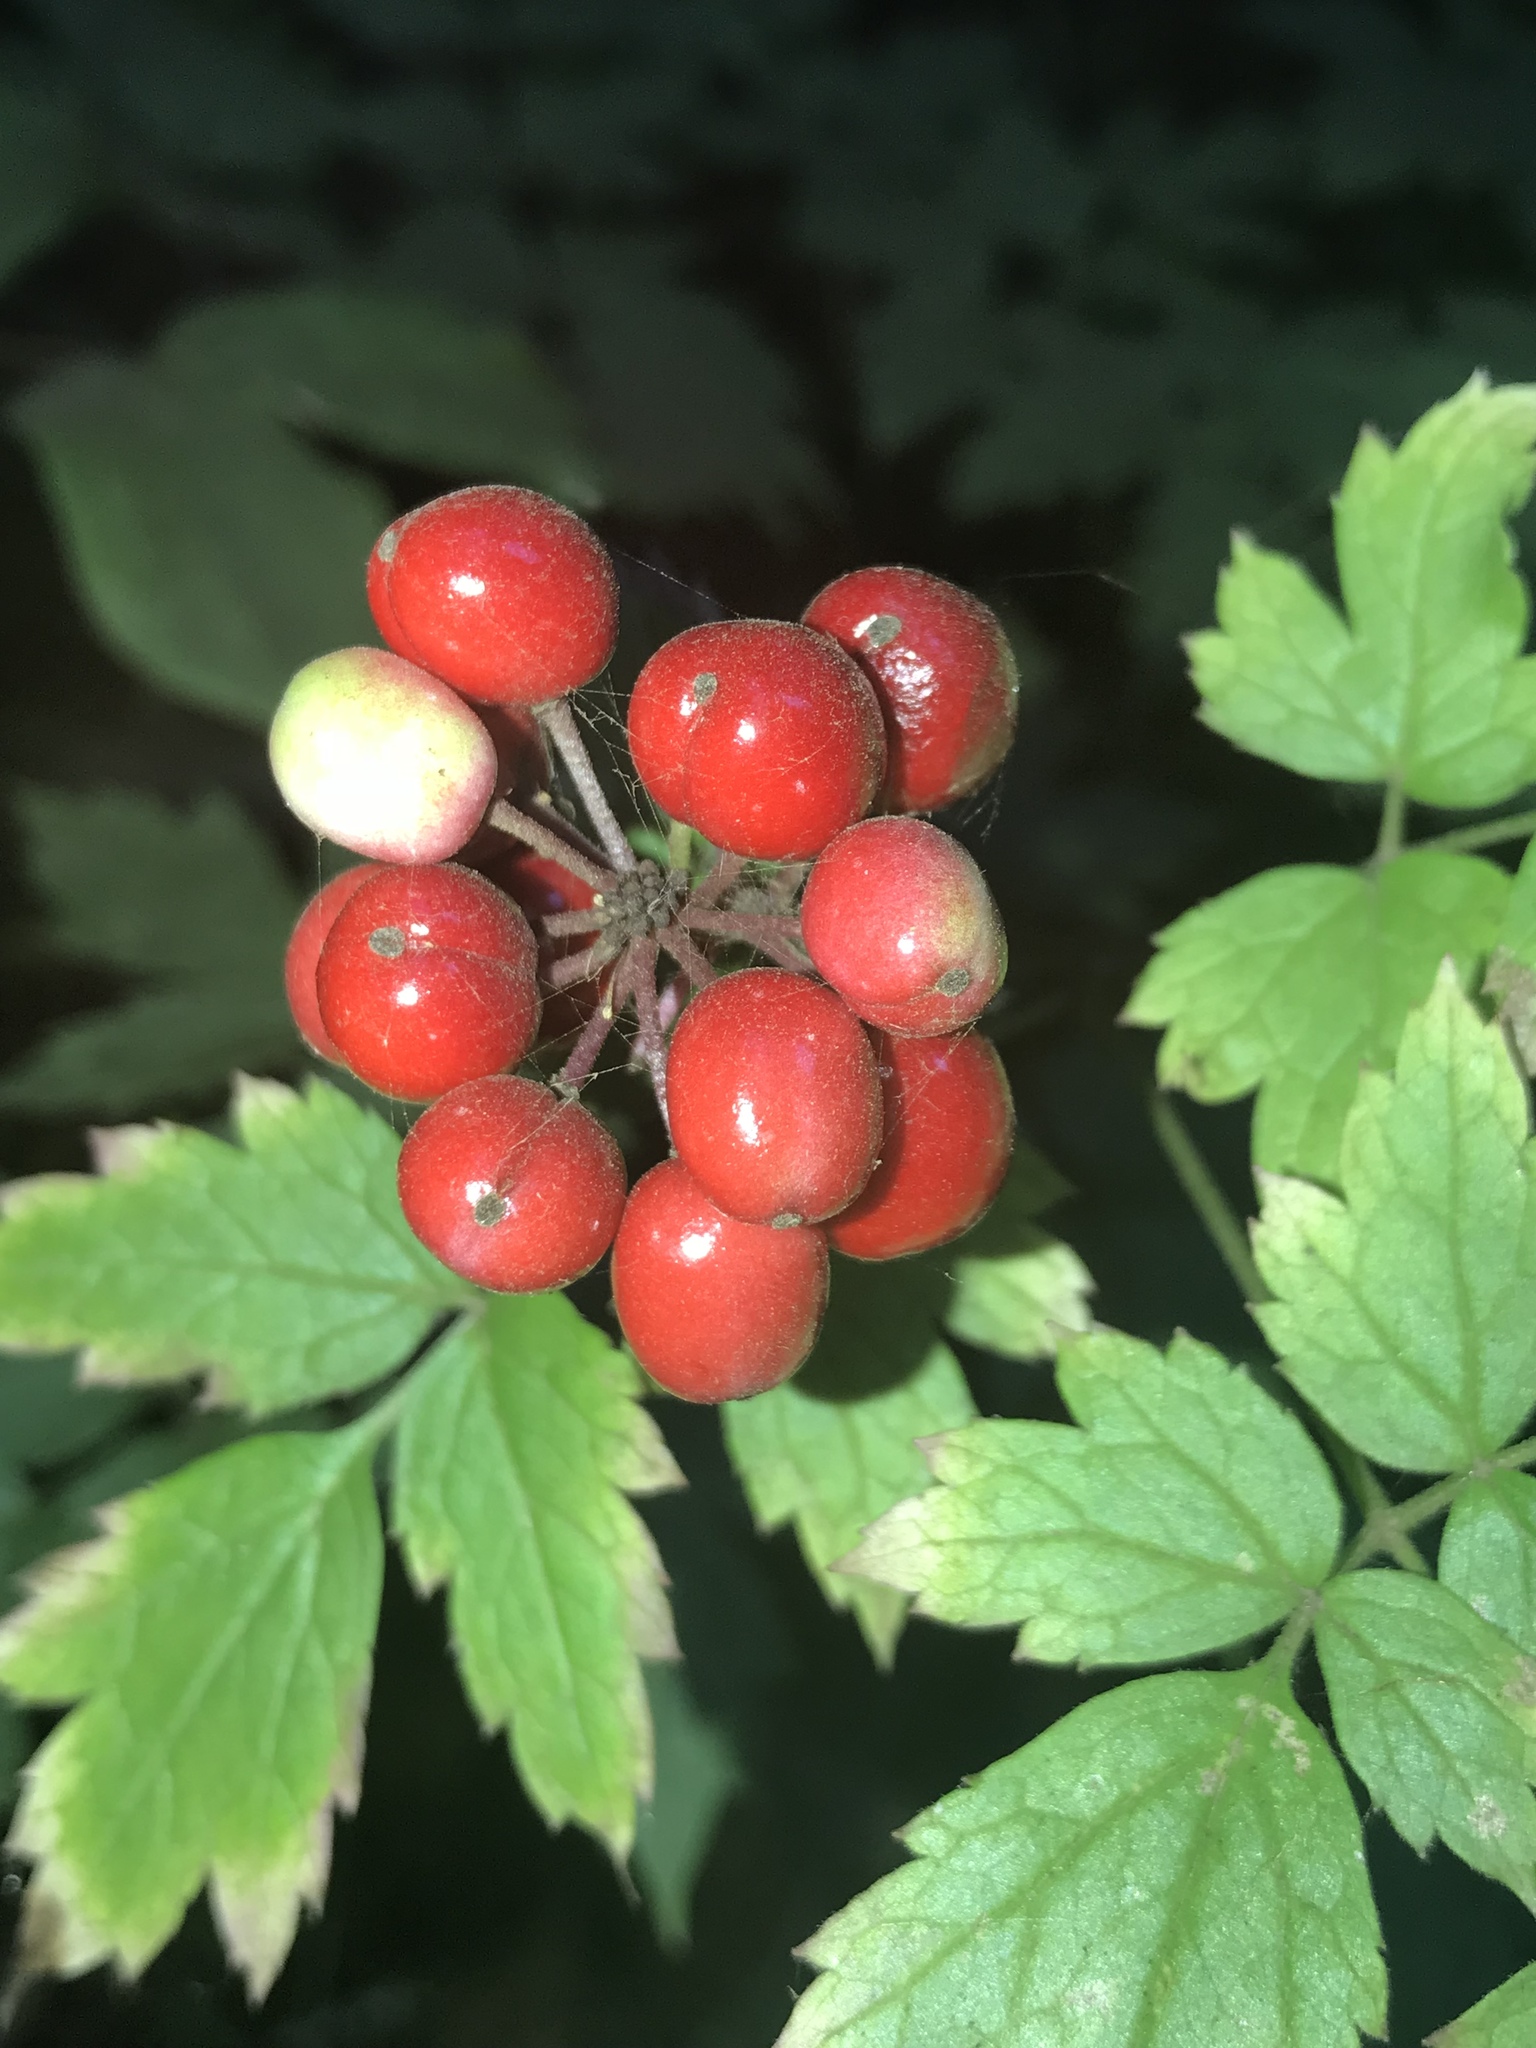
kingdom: Plantae
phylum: Tracheophyta
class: Magnoliopsida
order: Ranunculales
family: Ranunculaceae
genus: Actaea
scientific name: Actaea rubra
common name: Red baneberry
